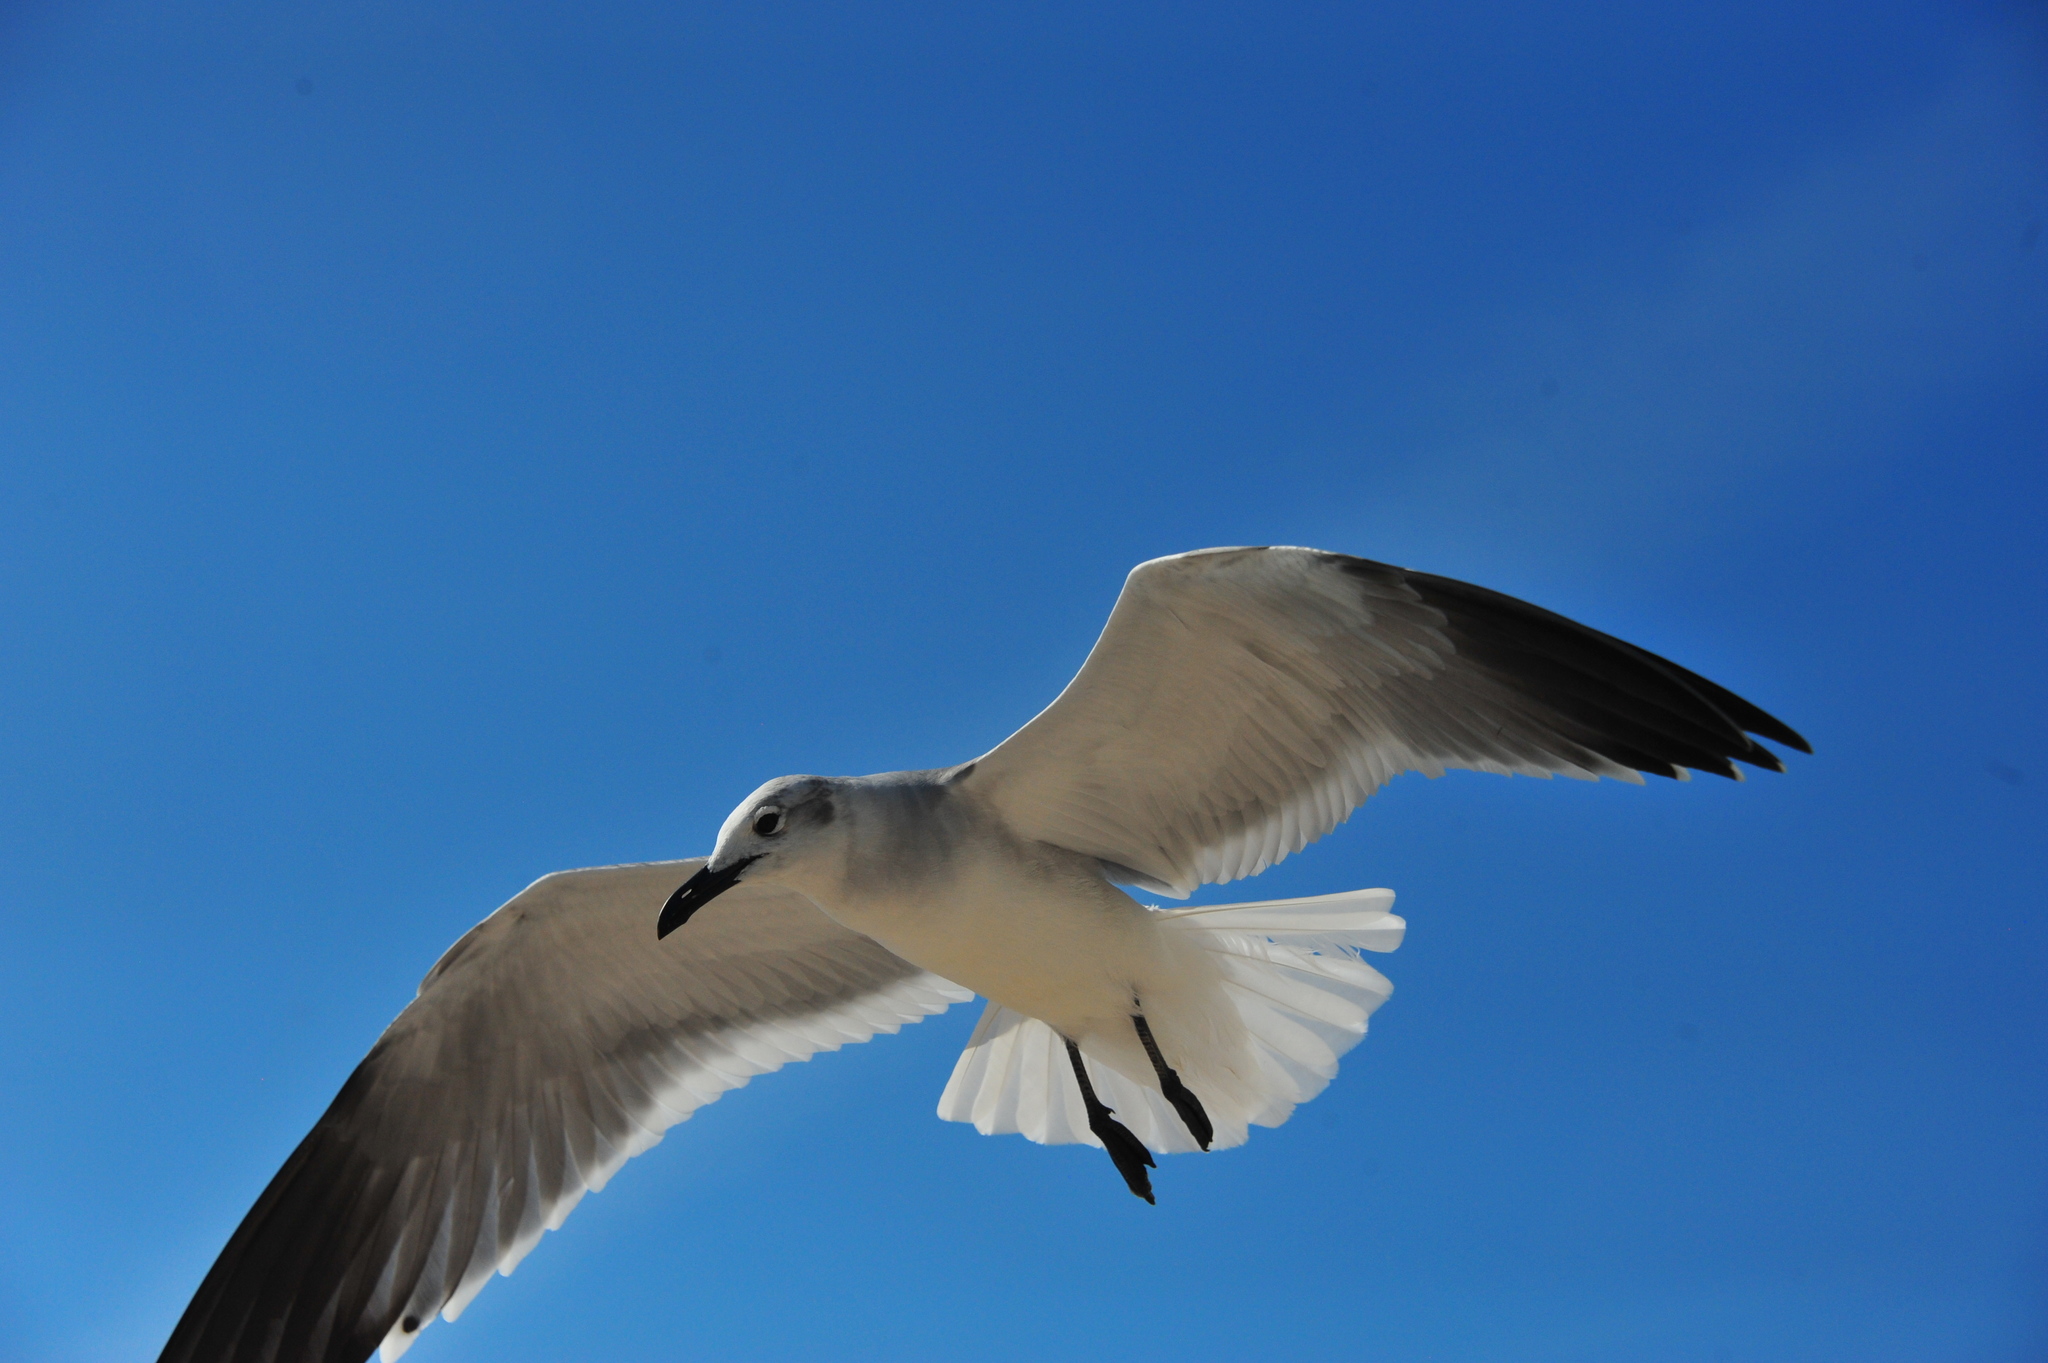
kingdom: Animalia
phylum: Chordata
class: Aves
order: Charadriiformes
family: Laridae
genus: Leucophaeus
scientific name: Leucophaeus atricilla
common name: Laughing gull
